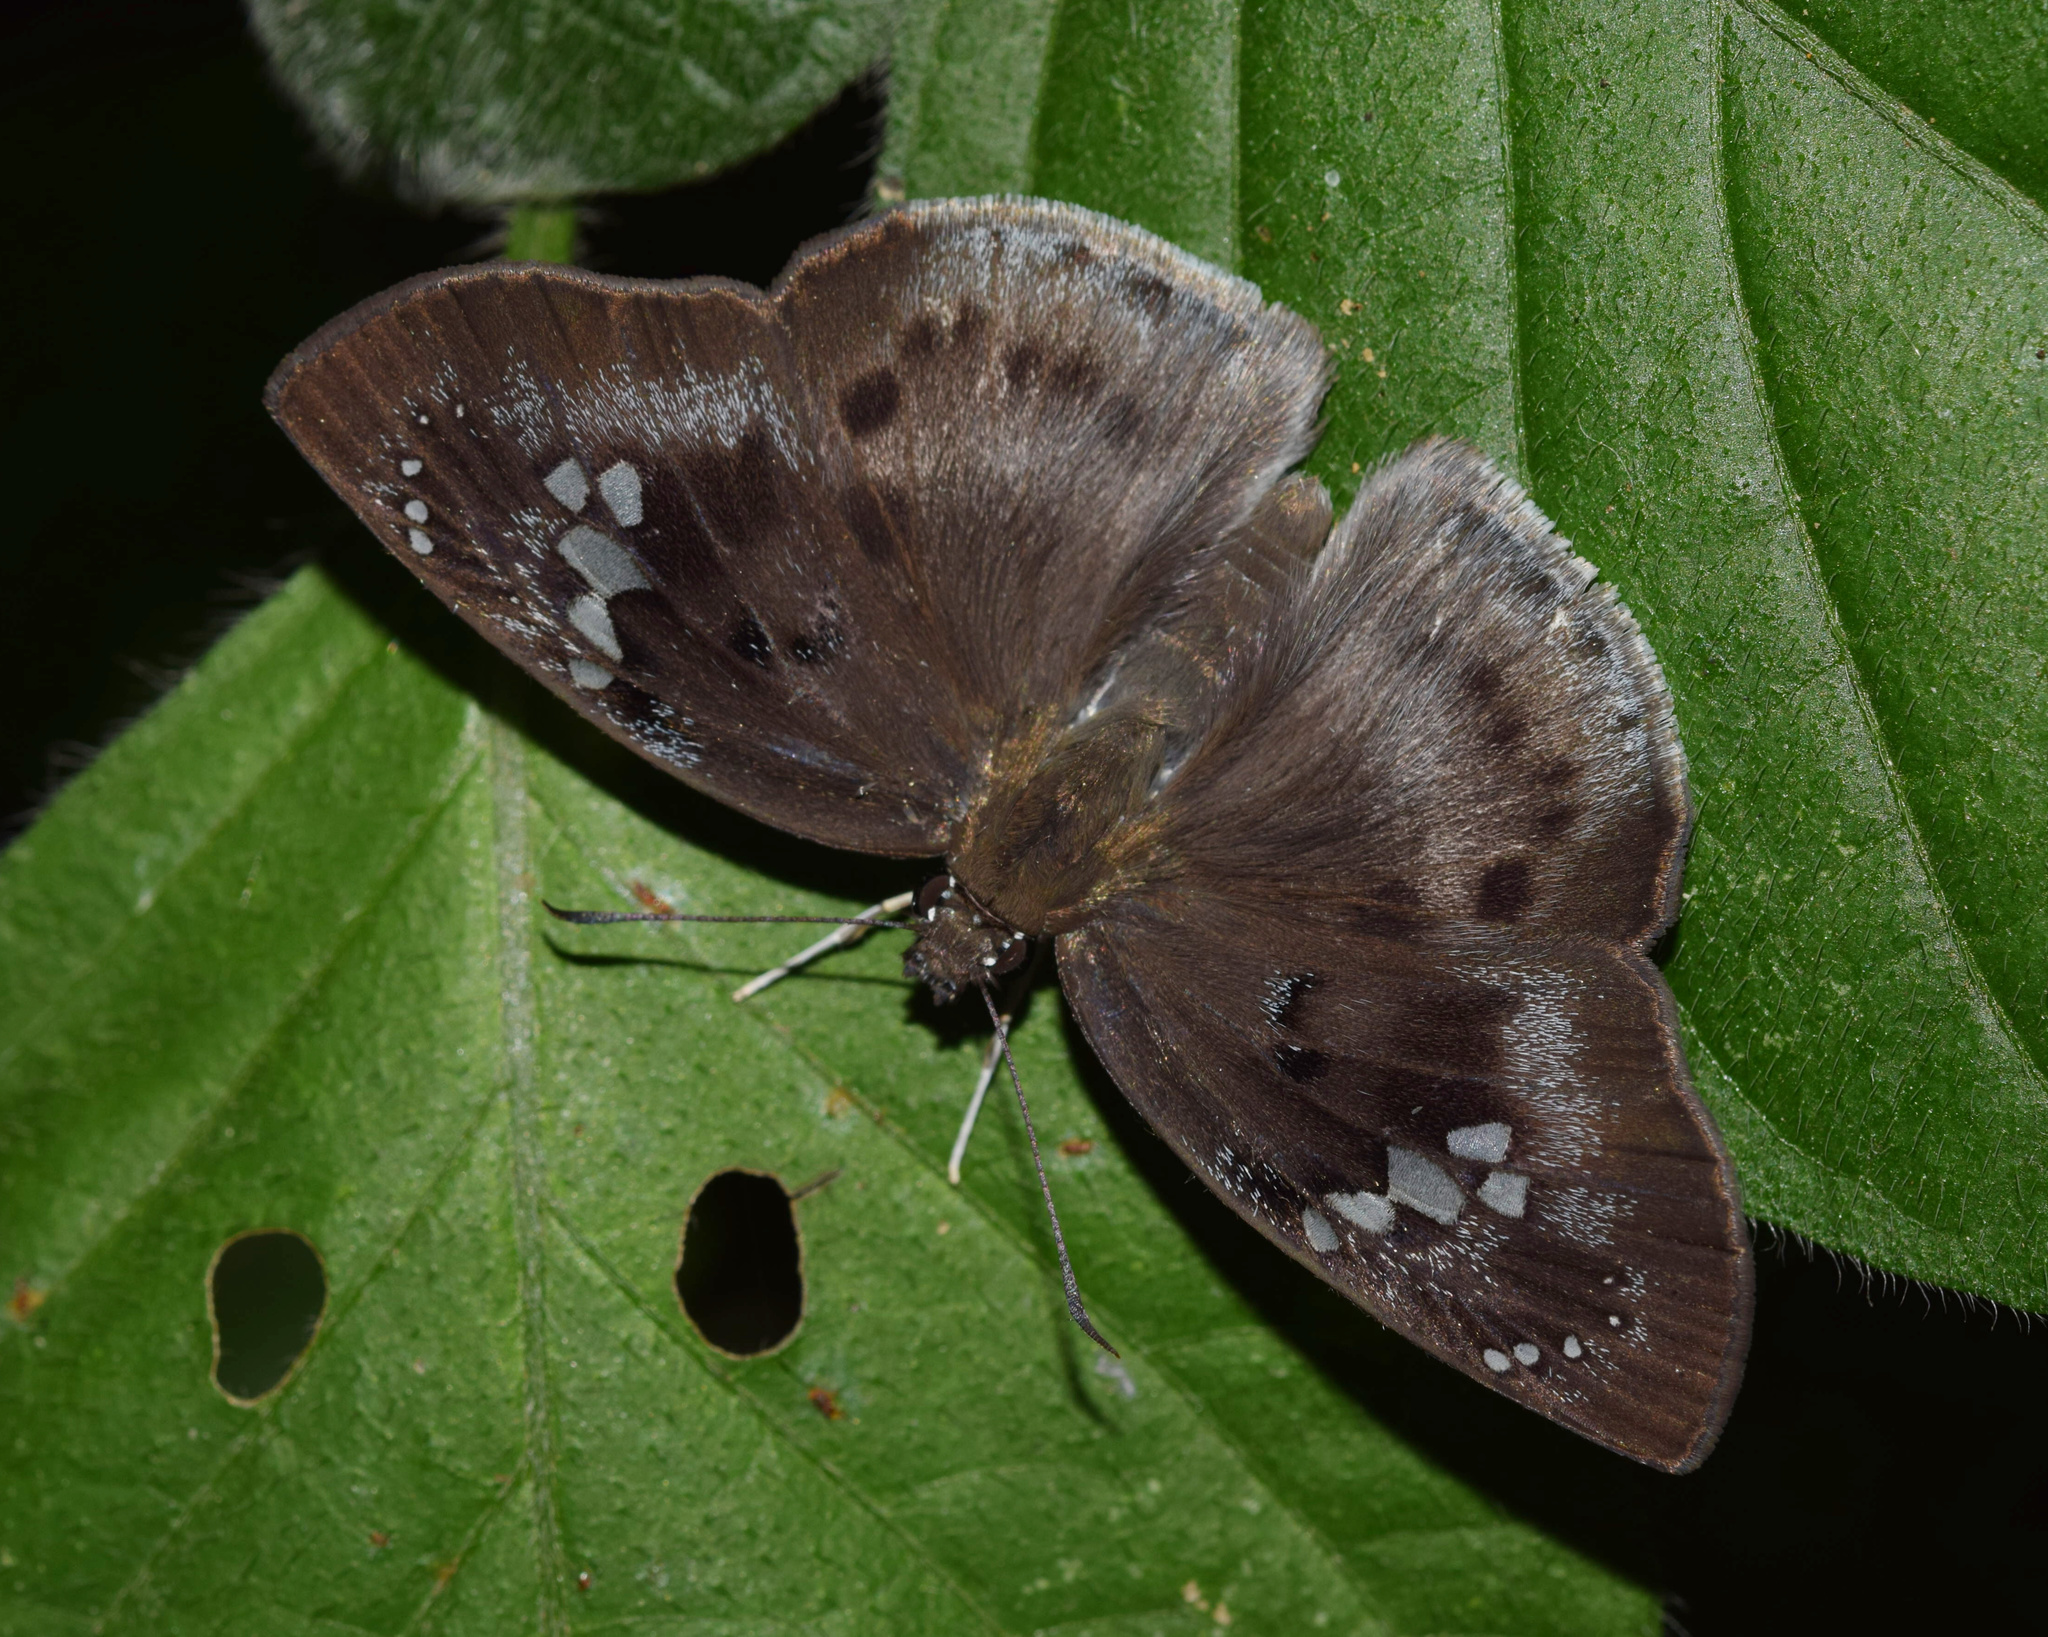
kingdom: Animalia
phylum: Arthropoda
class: Insecta
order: Lepidoptera
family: Hesperiidae
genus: Tagiades
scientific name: Tagiades flesus
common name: Clouded flat
